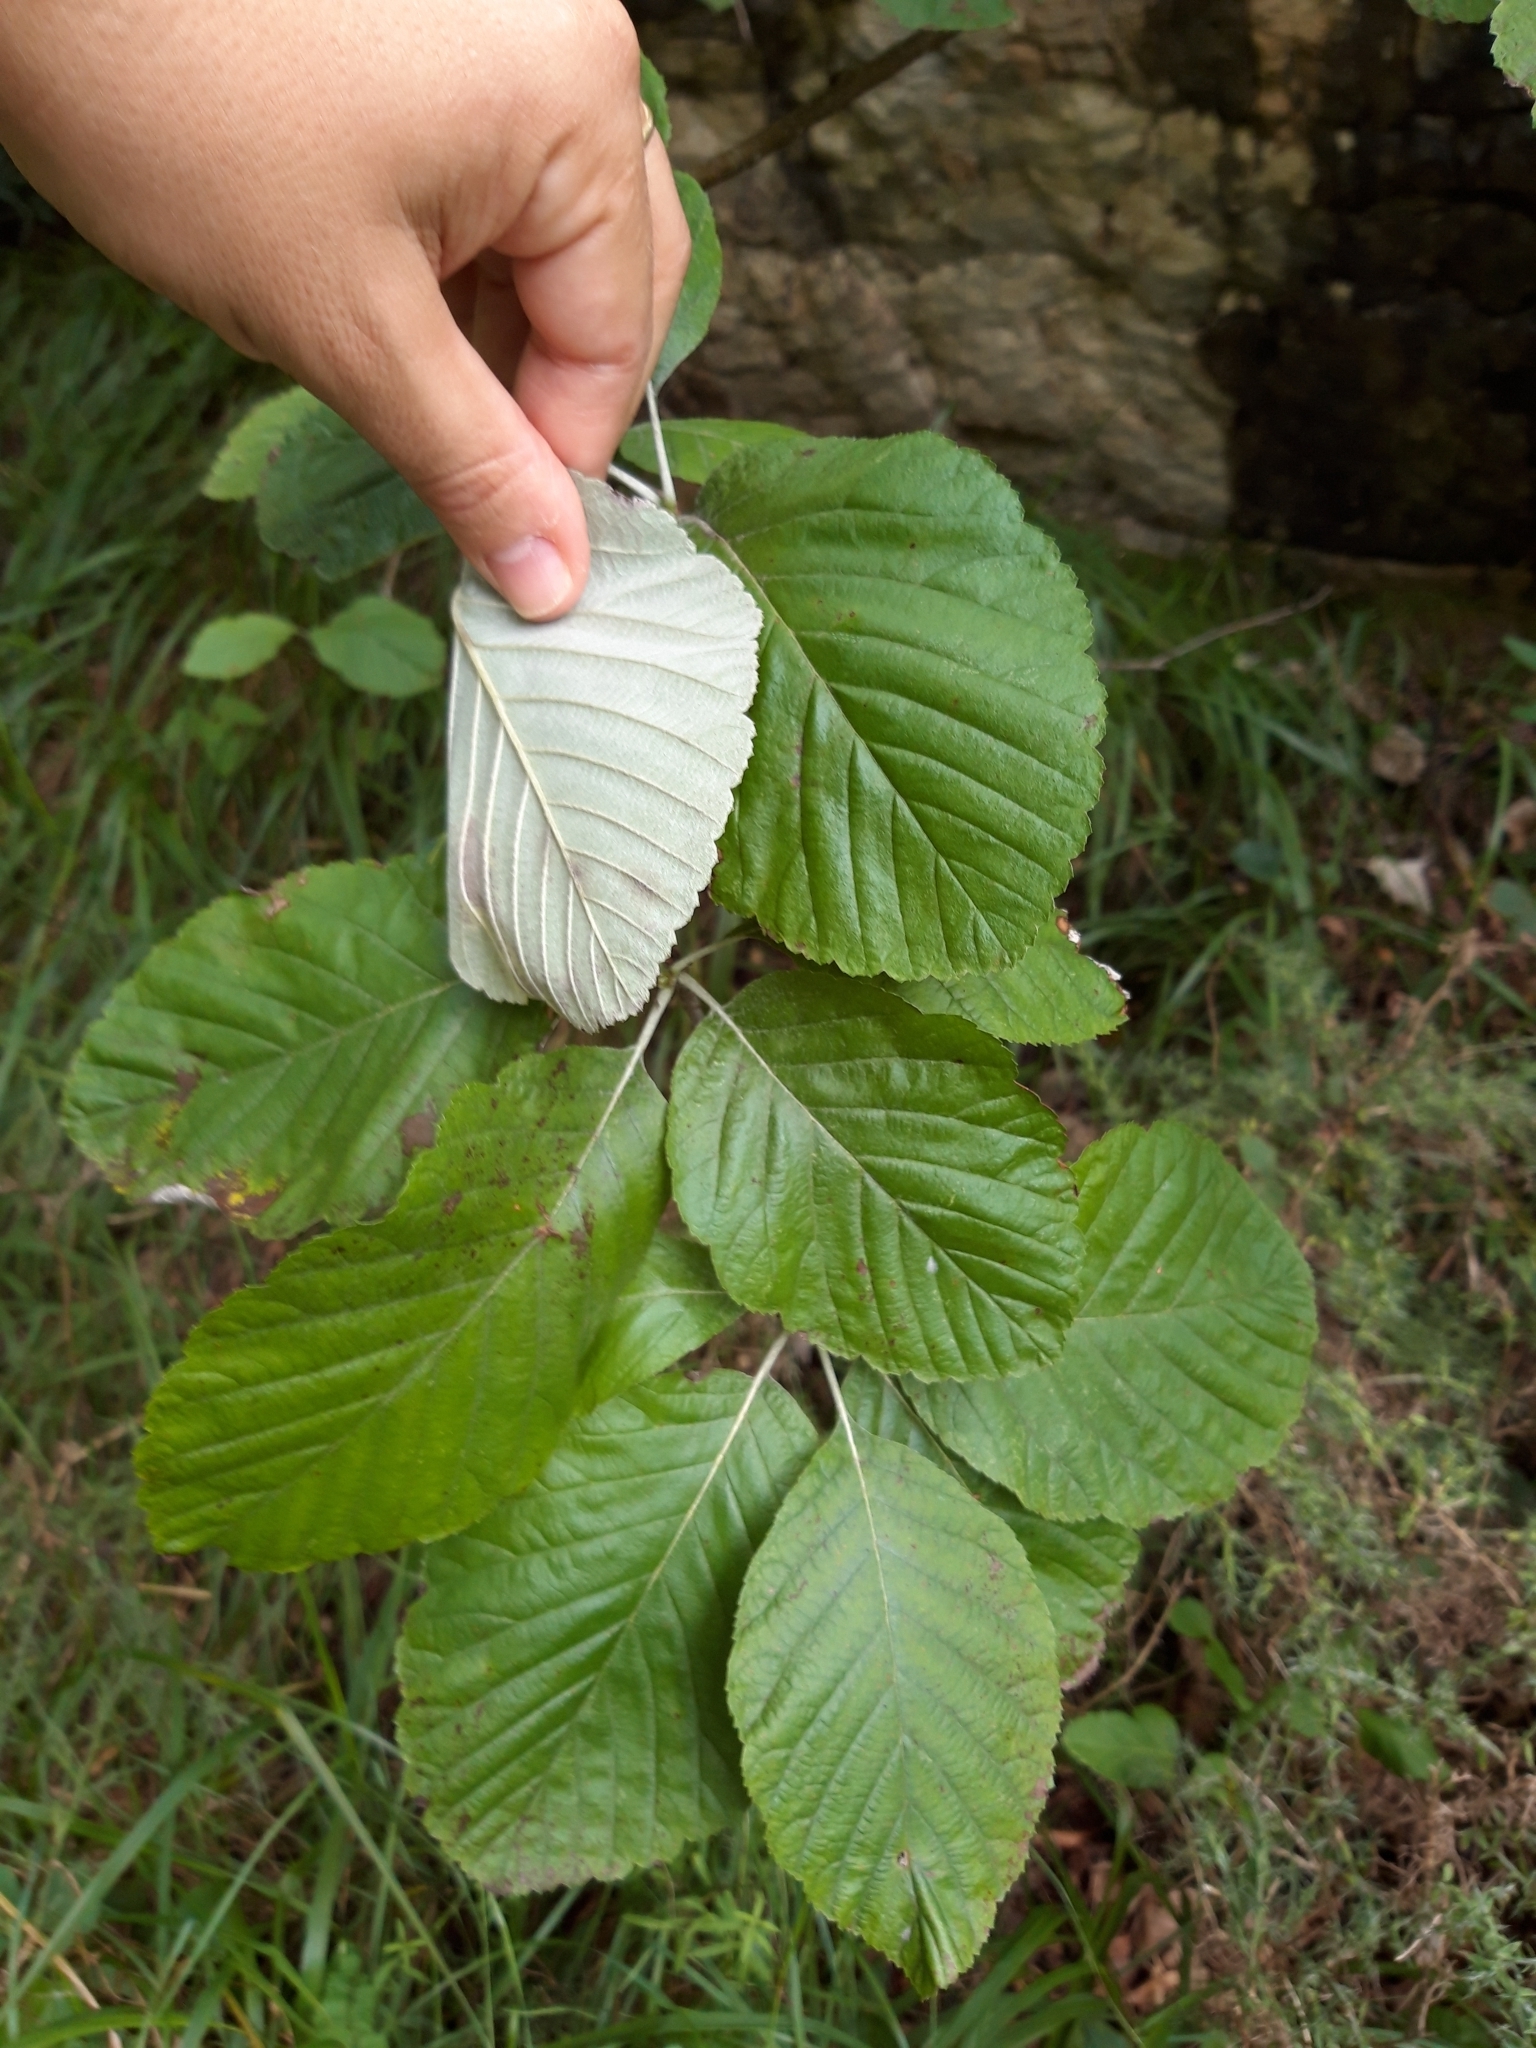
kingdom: Plantae
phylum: Tracheophyta
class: Magnoliopsida
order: Rosales
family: Rosaceae
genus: Aria
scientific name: Aria edulis
